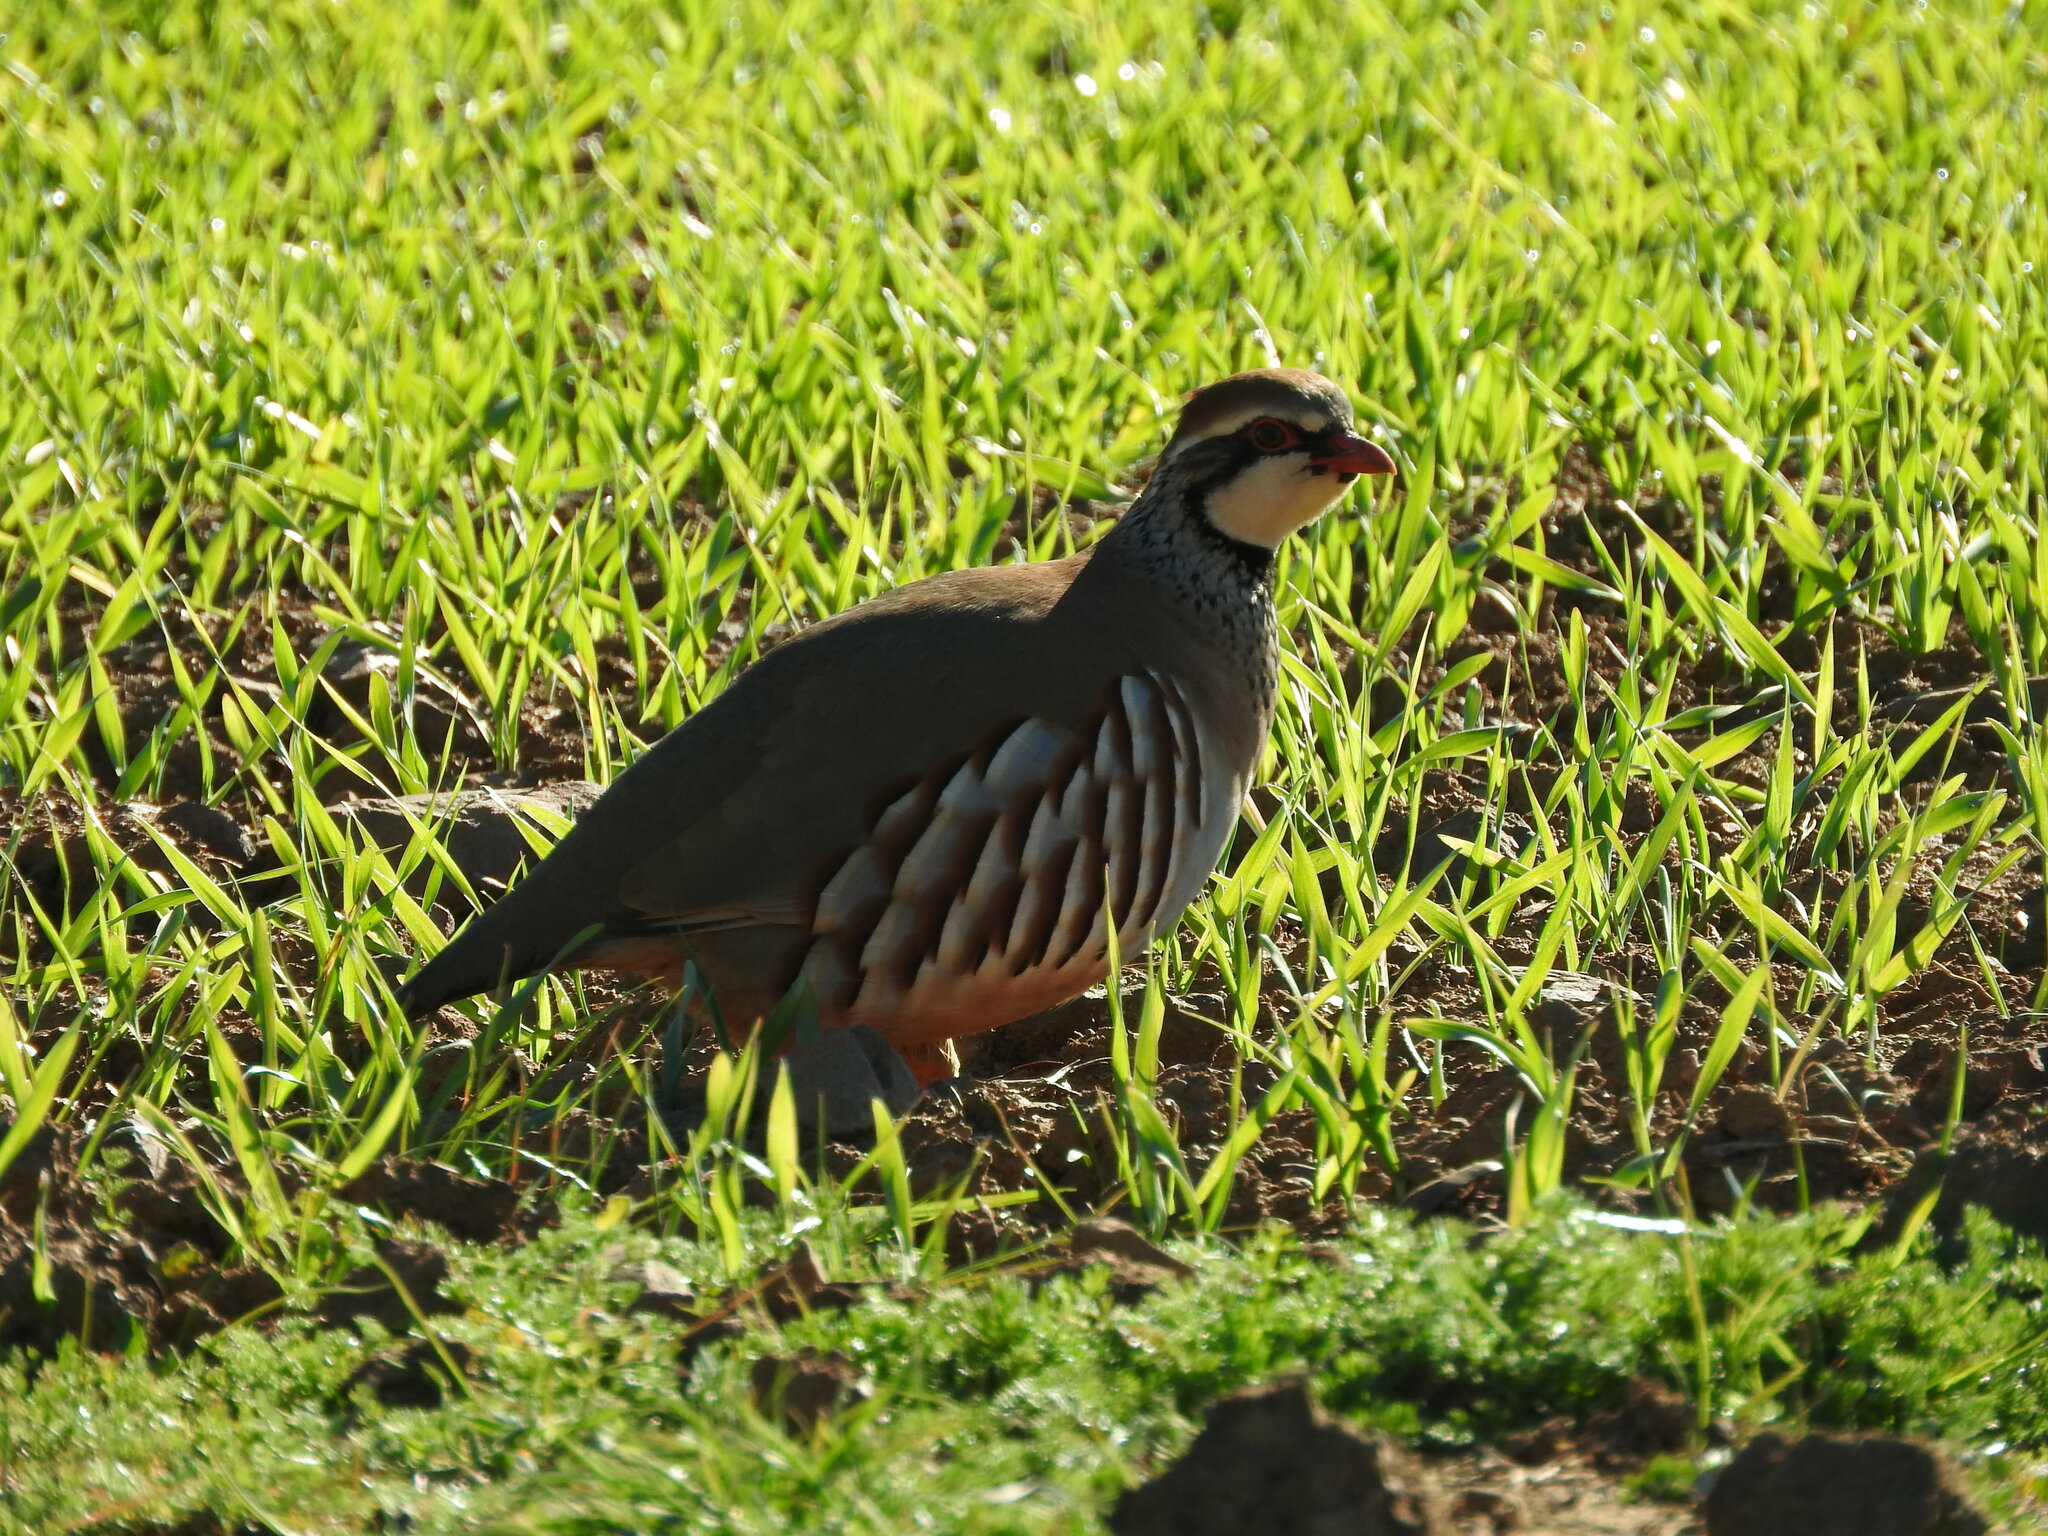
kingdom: Animalia
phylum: Chordata
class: Aves
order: Galliformes
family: Phasianidae
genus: Alectoris
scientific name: Alectoris rufa
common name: Red-legged partridge
